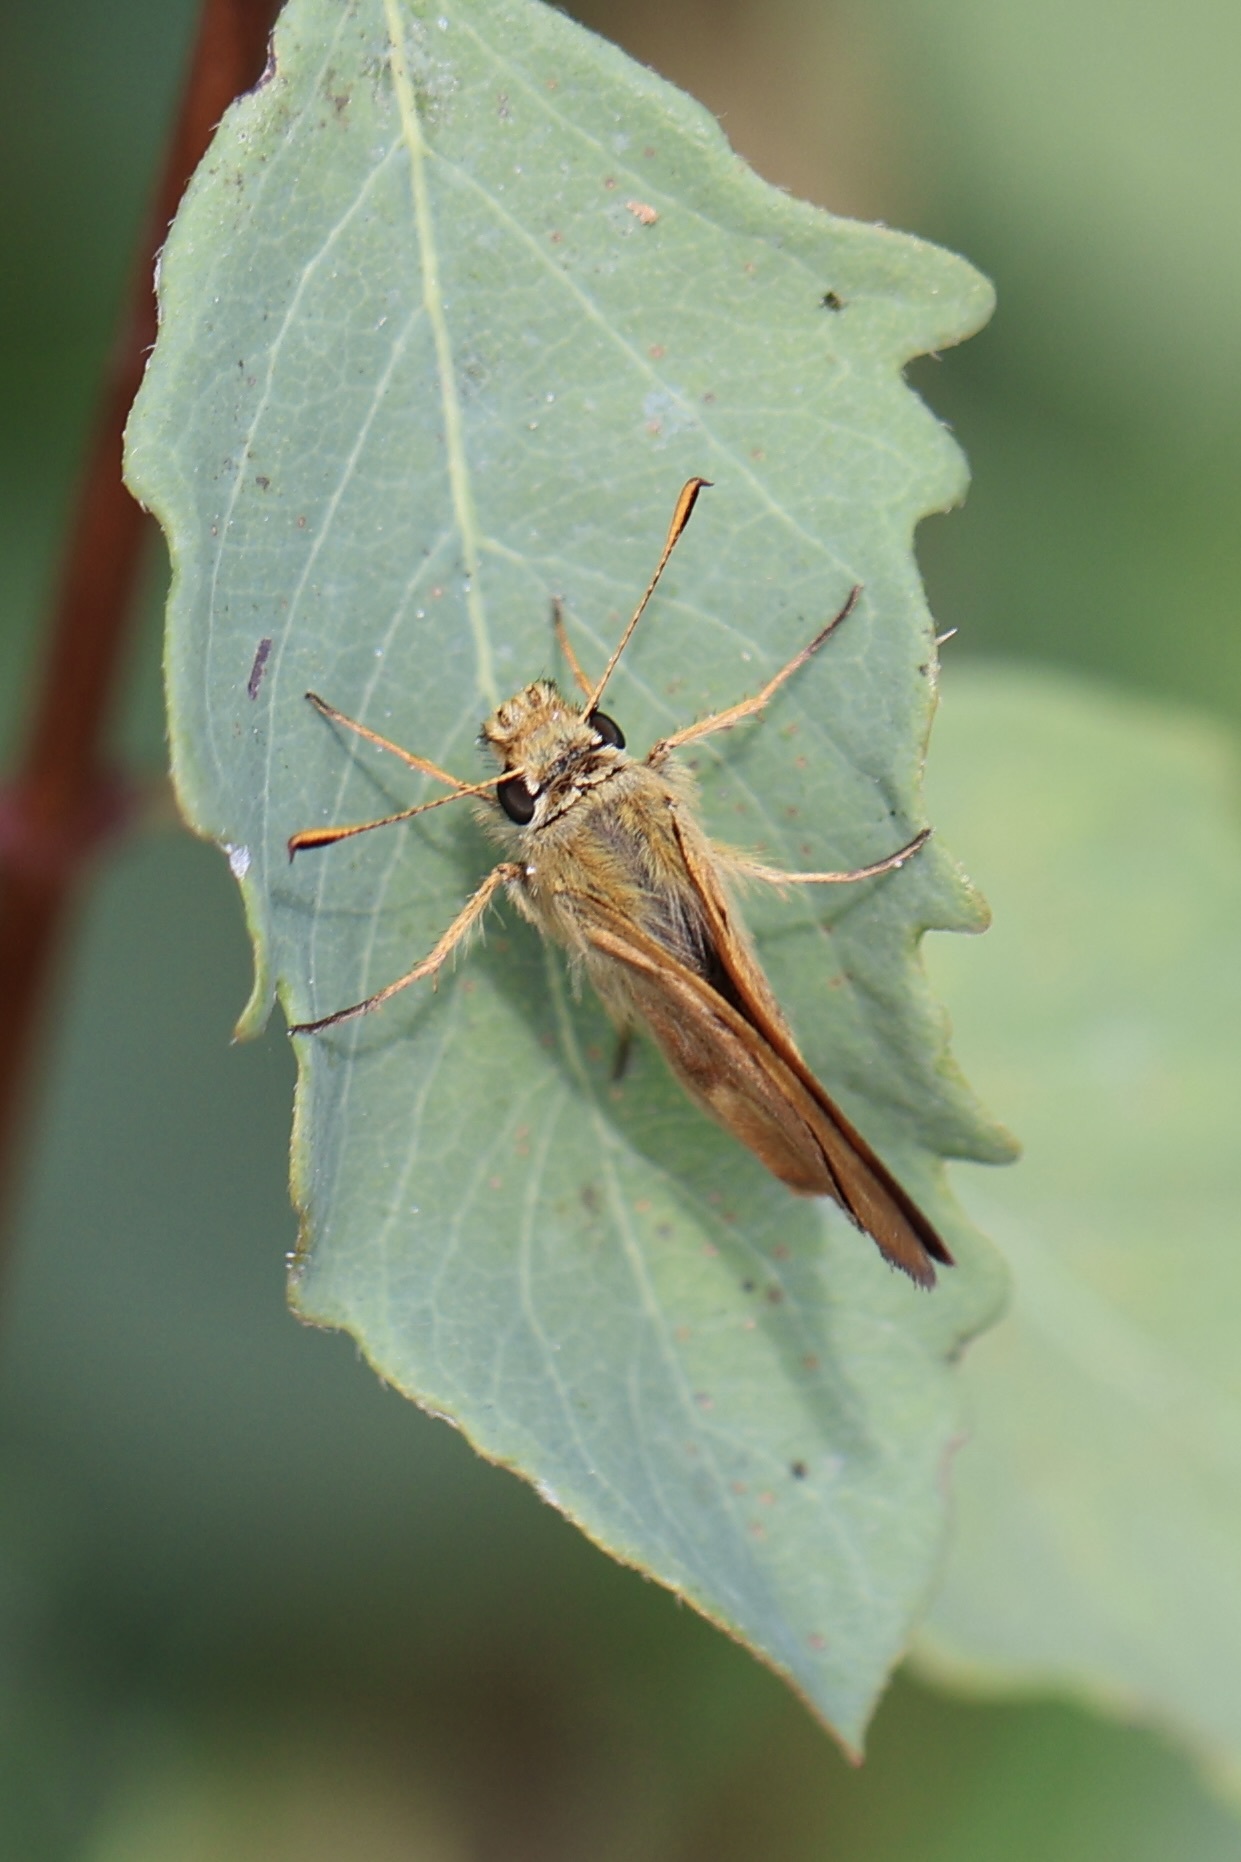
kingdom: Animalia
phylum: Arthropoda
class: Insecta
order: Lepidoptera
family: Hesperiidae
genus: Ochlodes
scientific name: Ochlodes sylvanoides
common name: Woodland skipper
